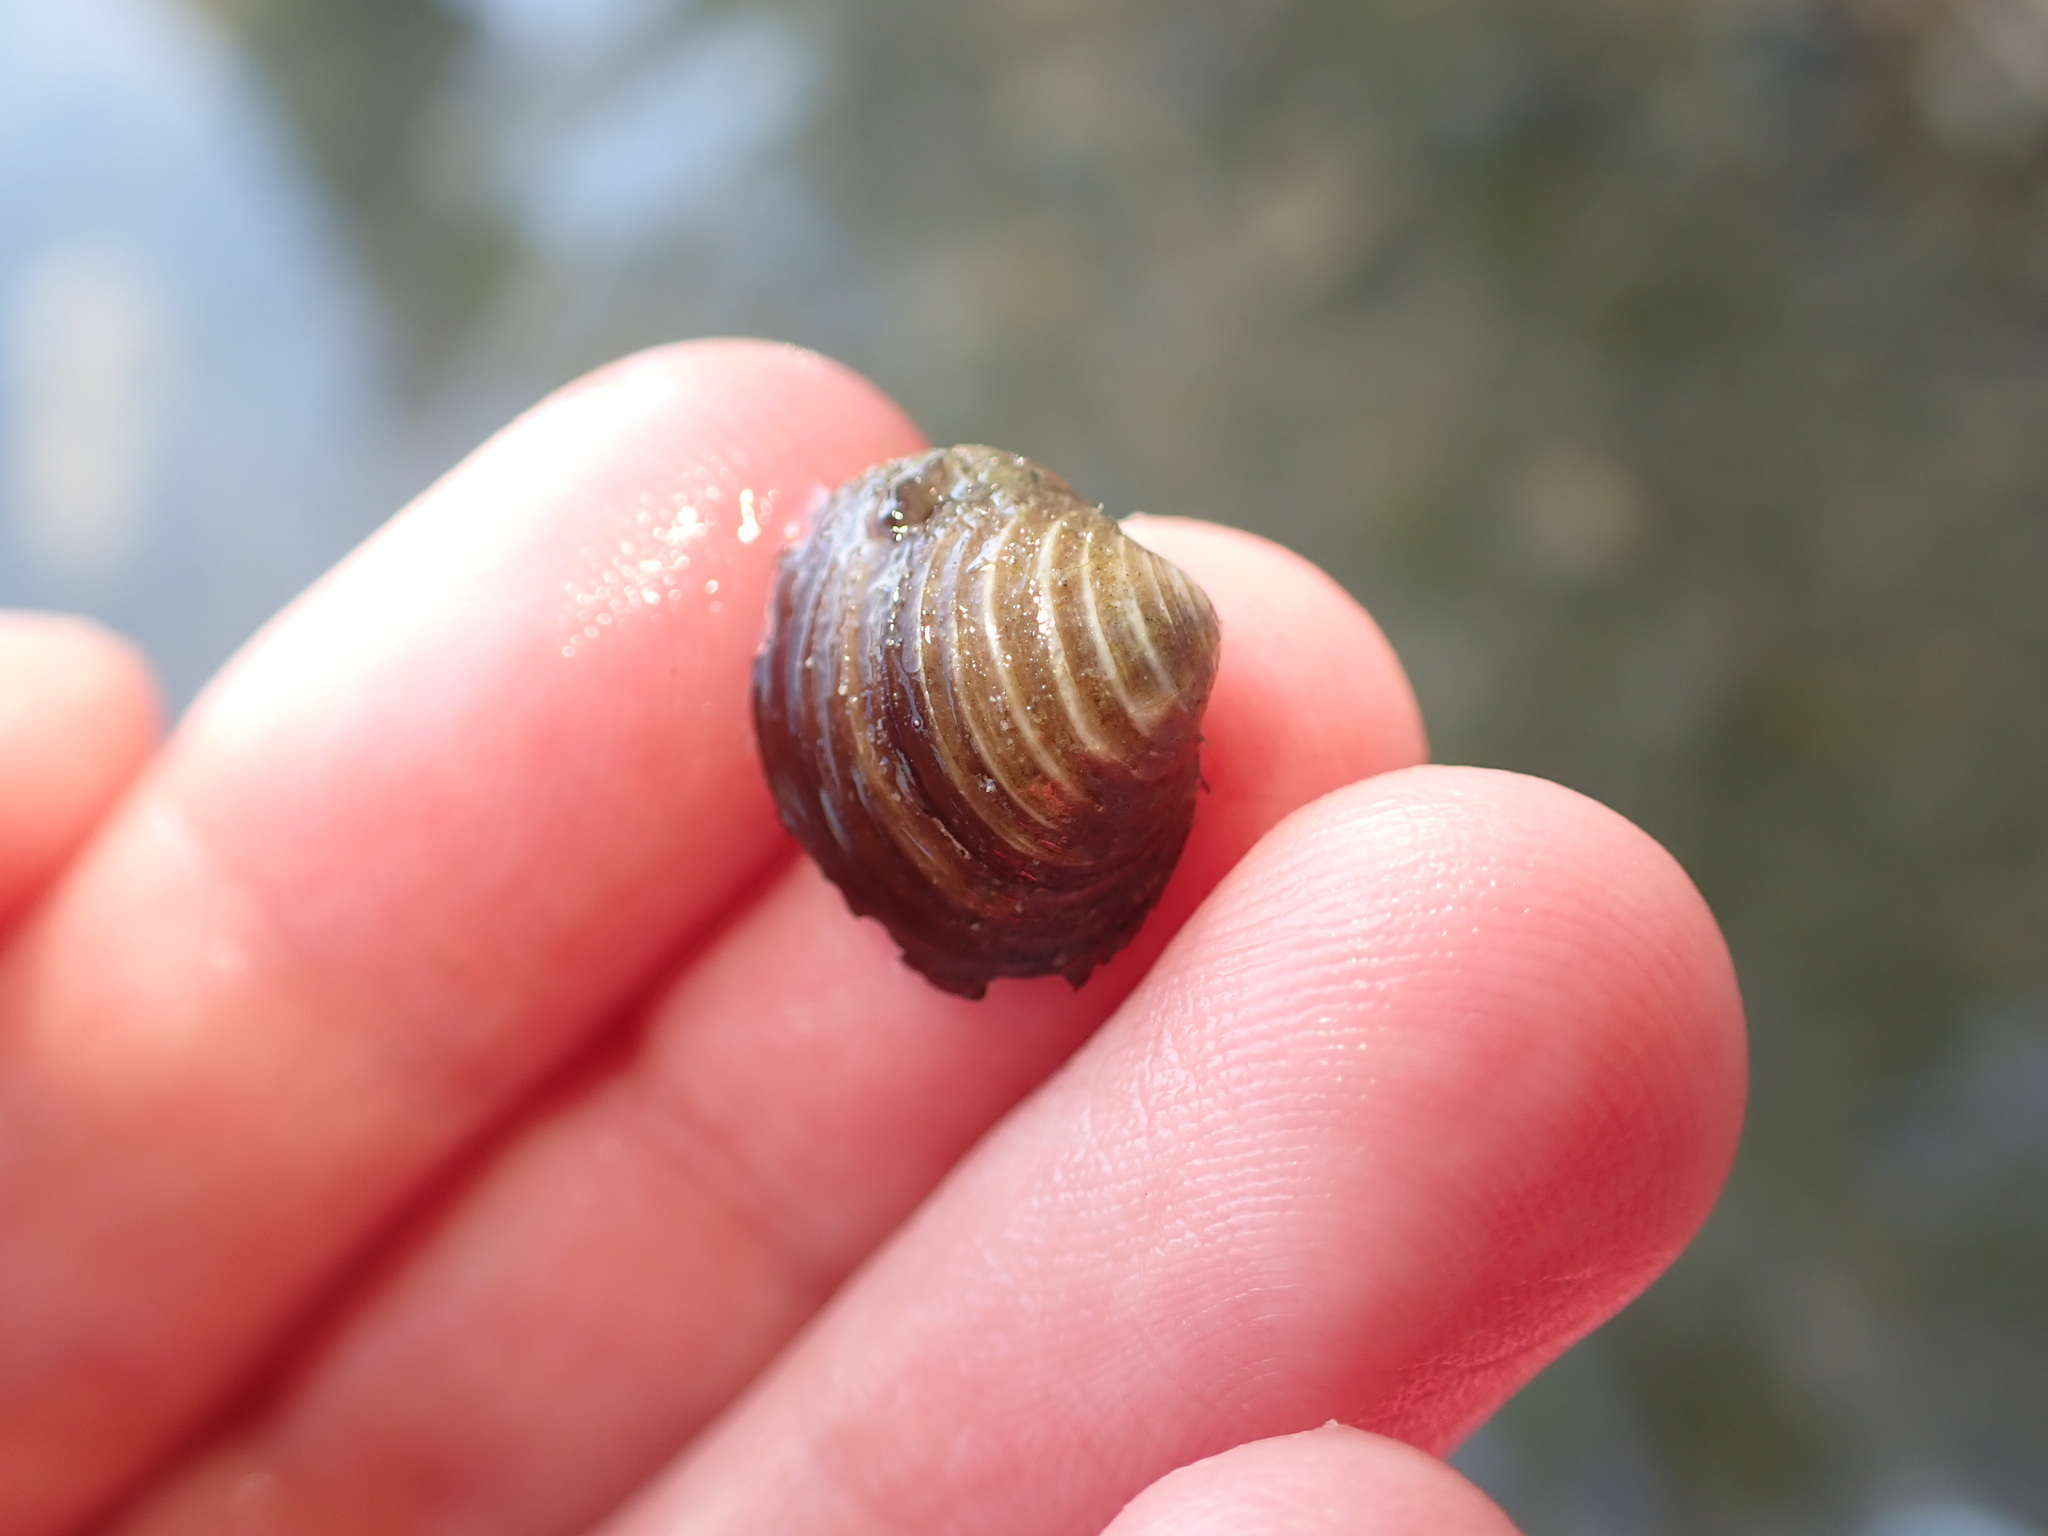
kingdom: Animalia
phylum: Mollusca
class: Bivalvia
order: Venerida
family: Cyrenidae
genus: Corbicula
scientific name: Corbicula fluminea
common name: Asian clam
